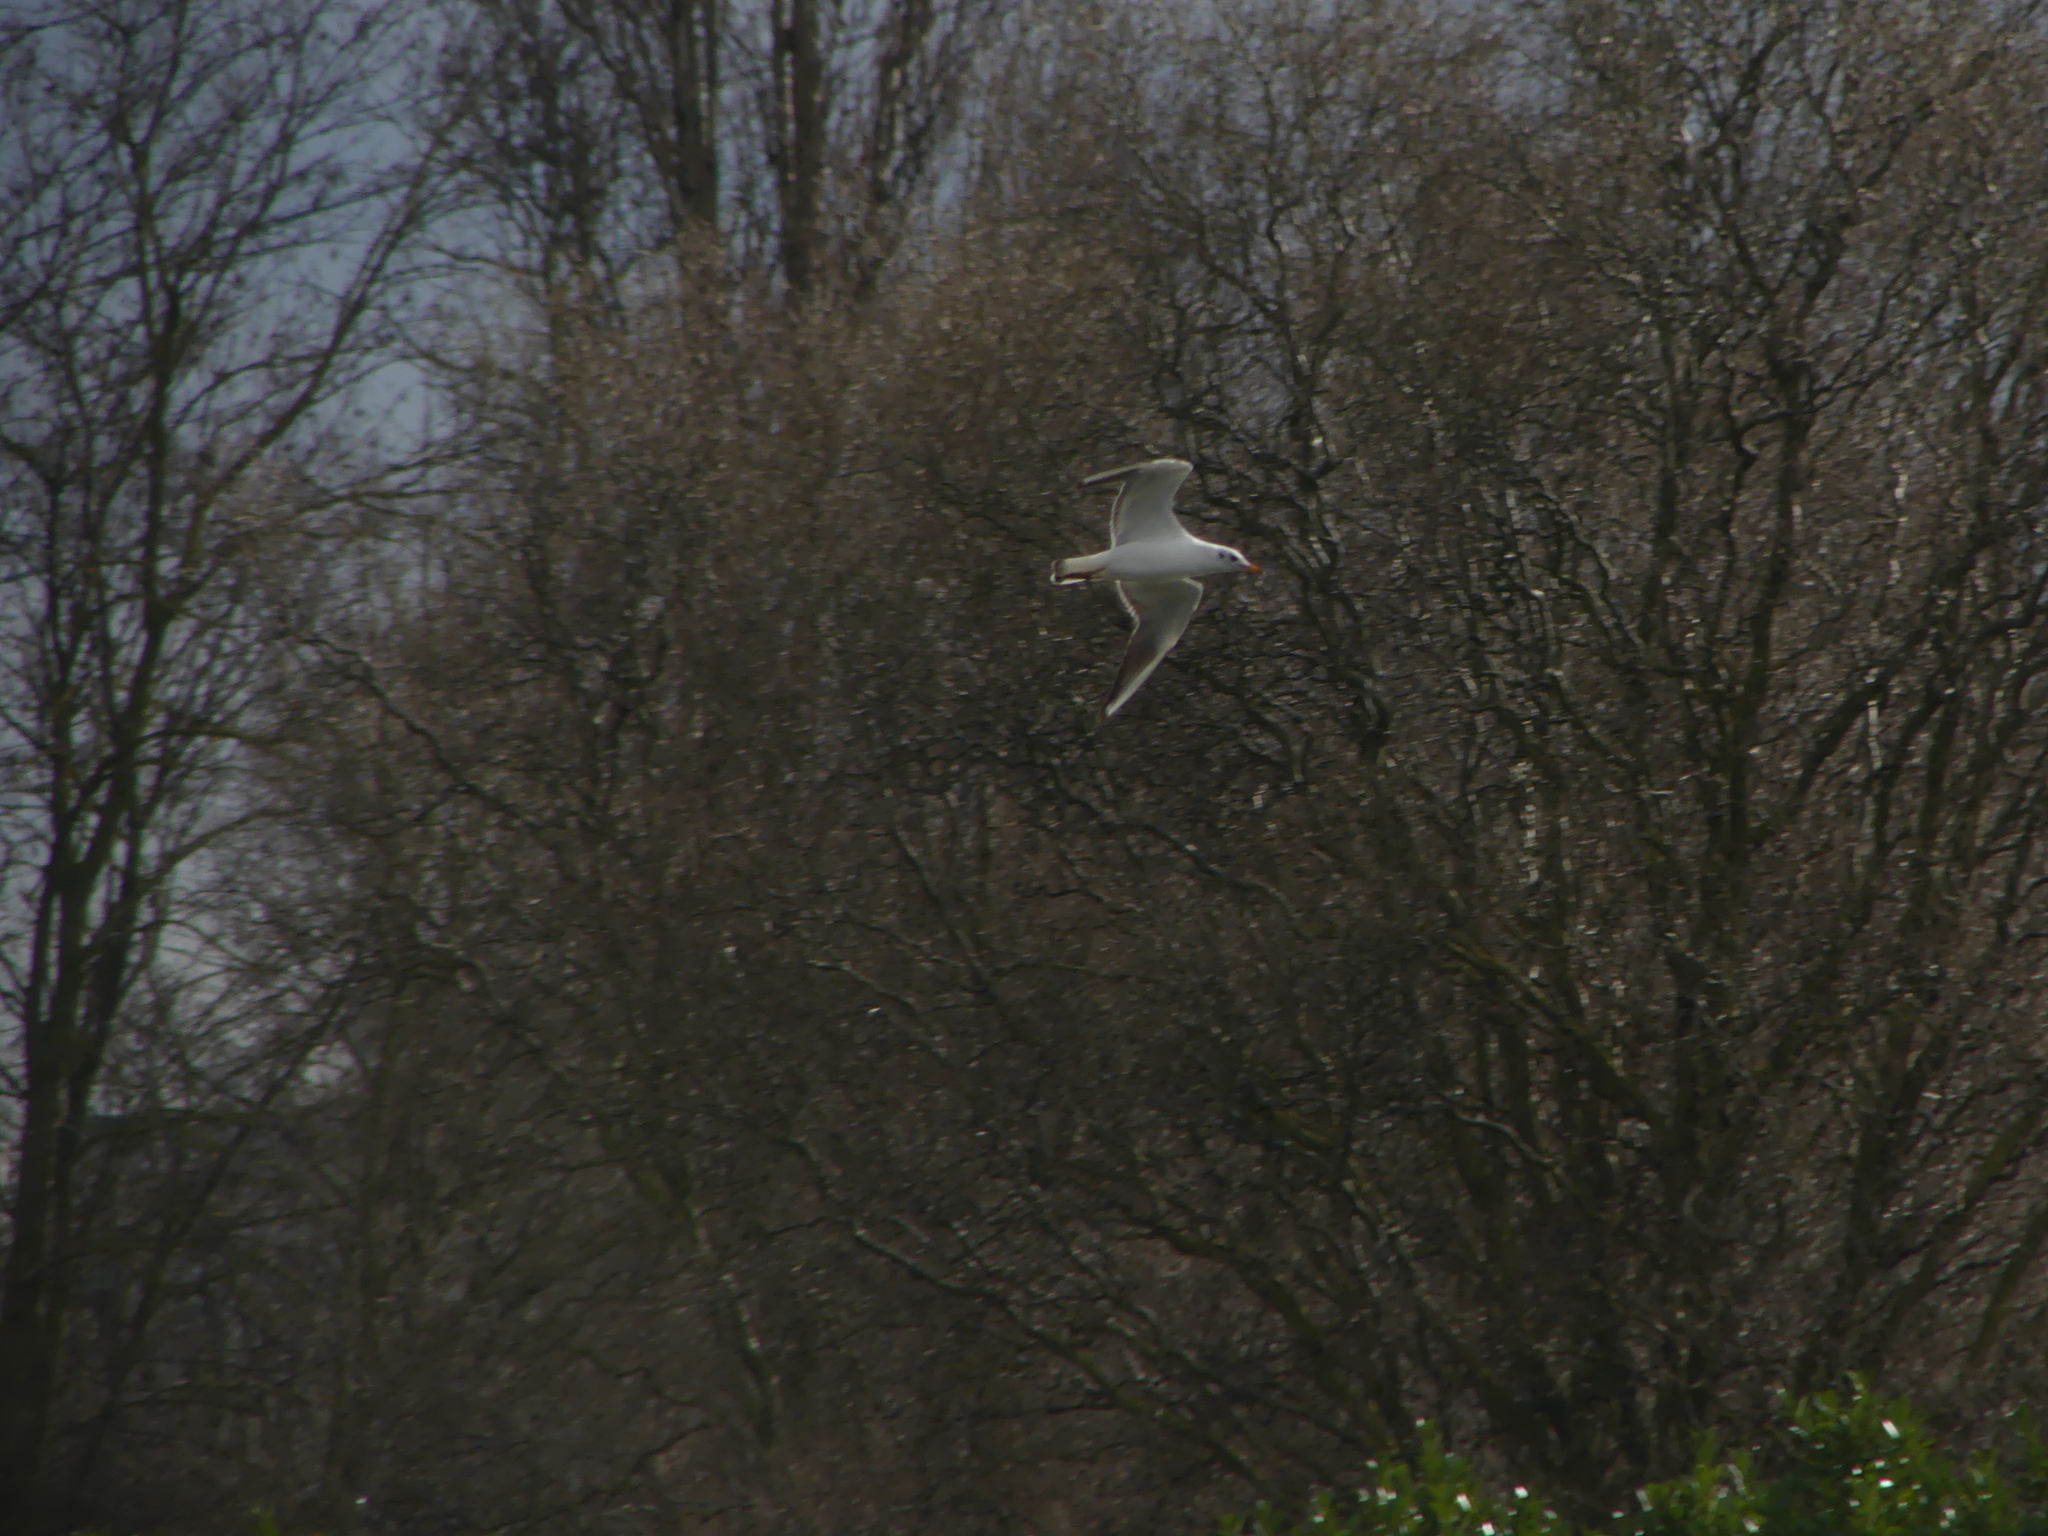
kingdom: Animalia
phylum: Chordata
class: Aves
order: Charadriiformes
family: Laridae
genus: Chroicocephalus
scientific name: Chroicocephalus ridibundus
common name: Black-headed gull
